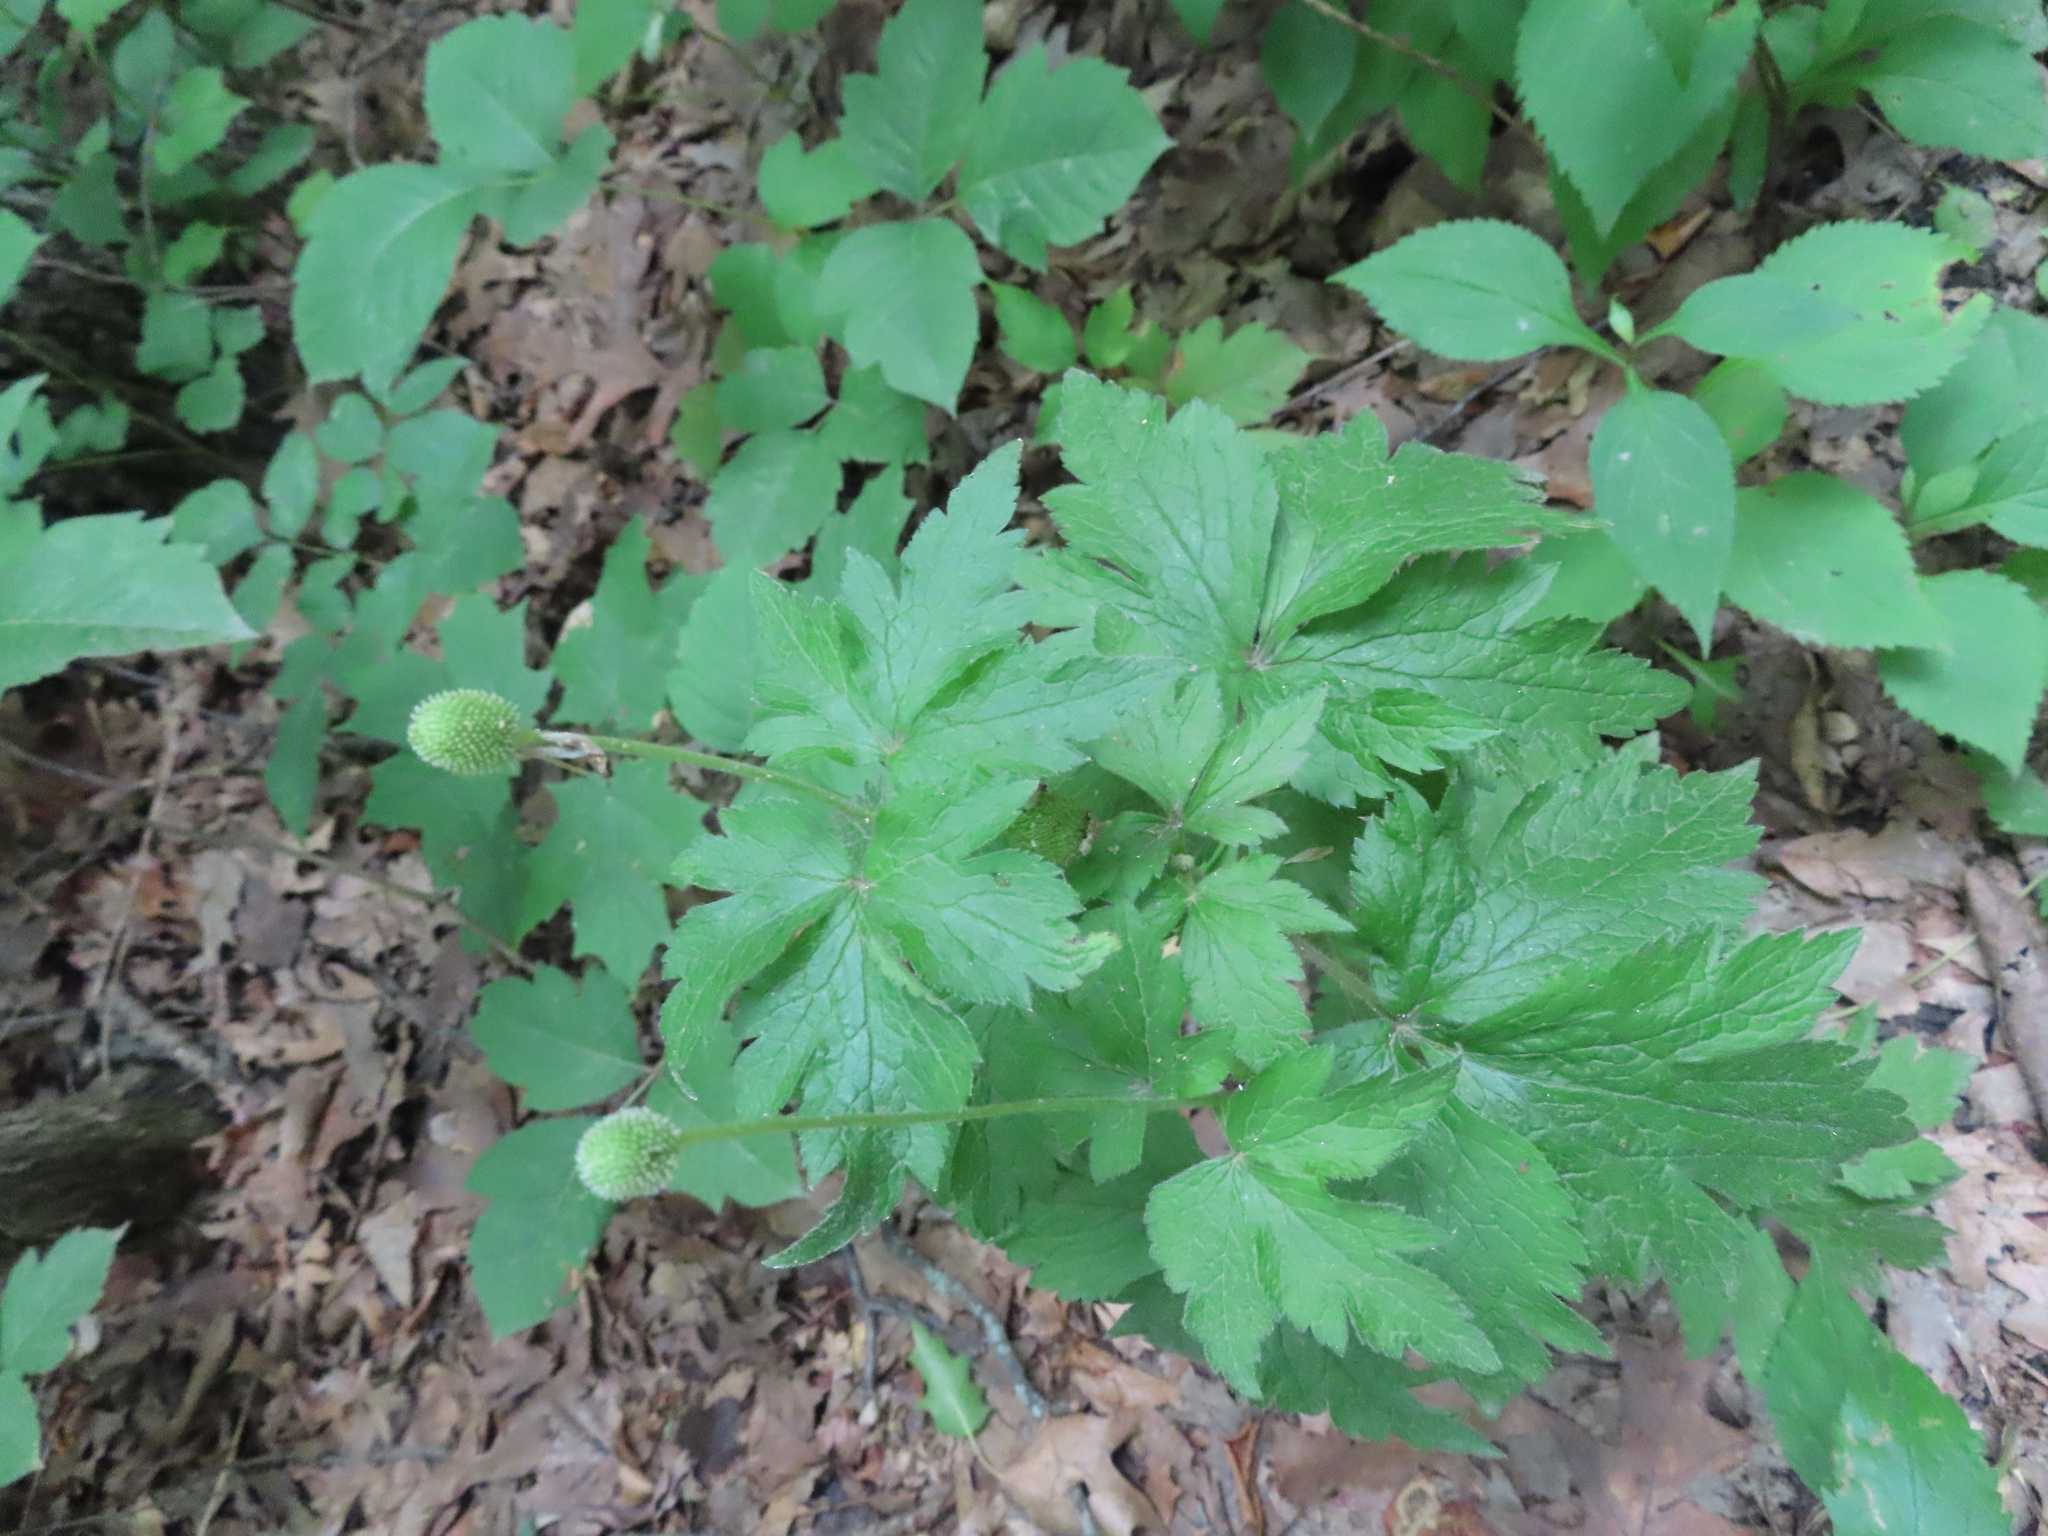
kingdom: Plantae
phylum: Tracheophyta
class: Magnoliopsida
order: Ranunculales
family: Ranunculaceae
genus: Anemone
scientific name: Anemone virginiana
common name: Tall anemone
